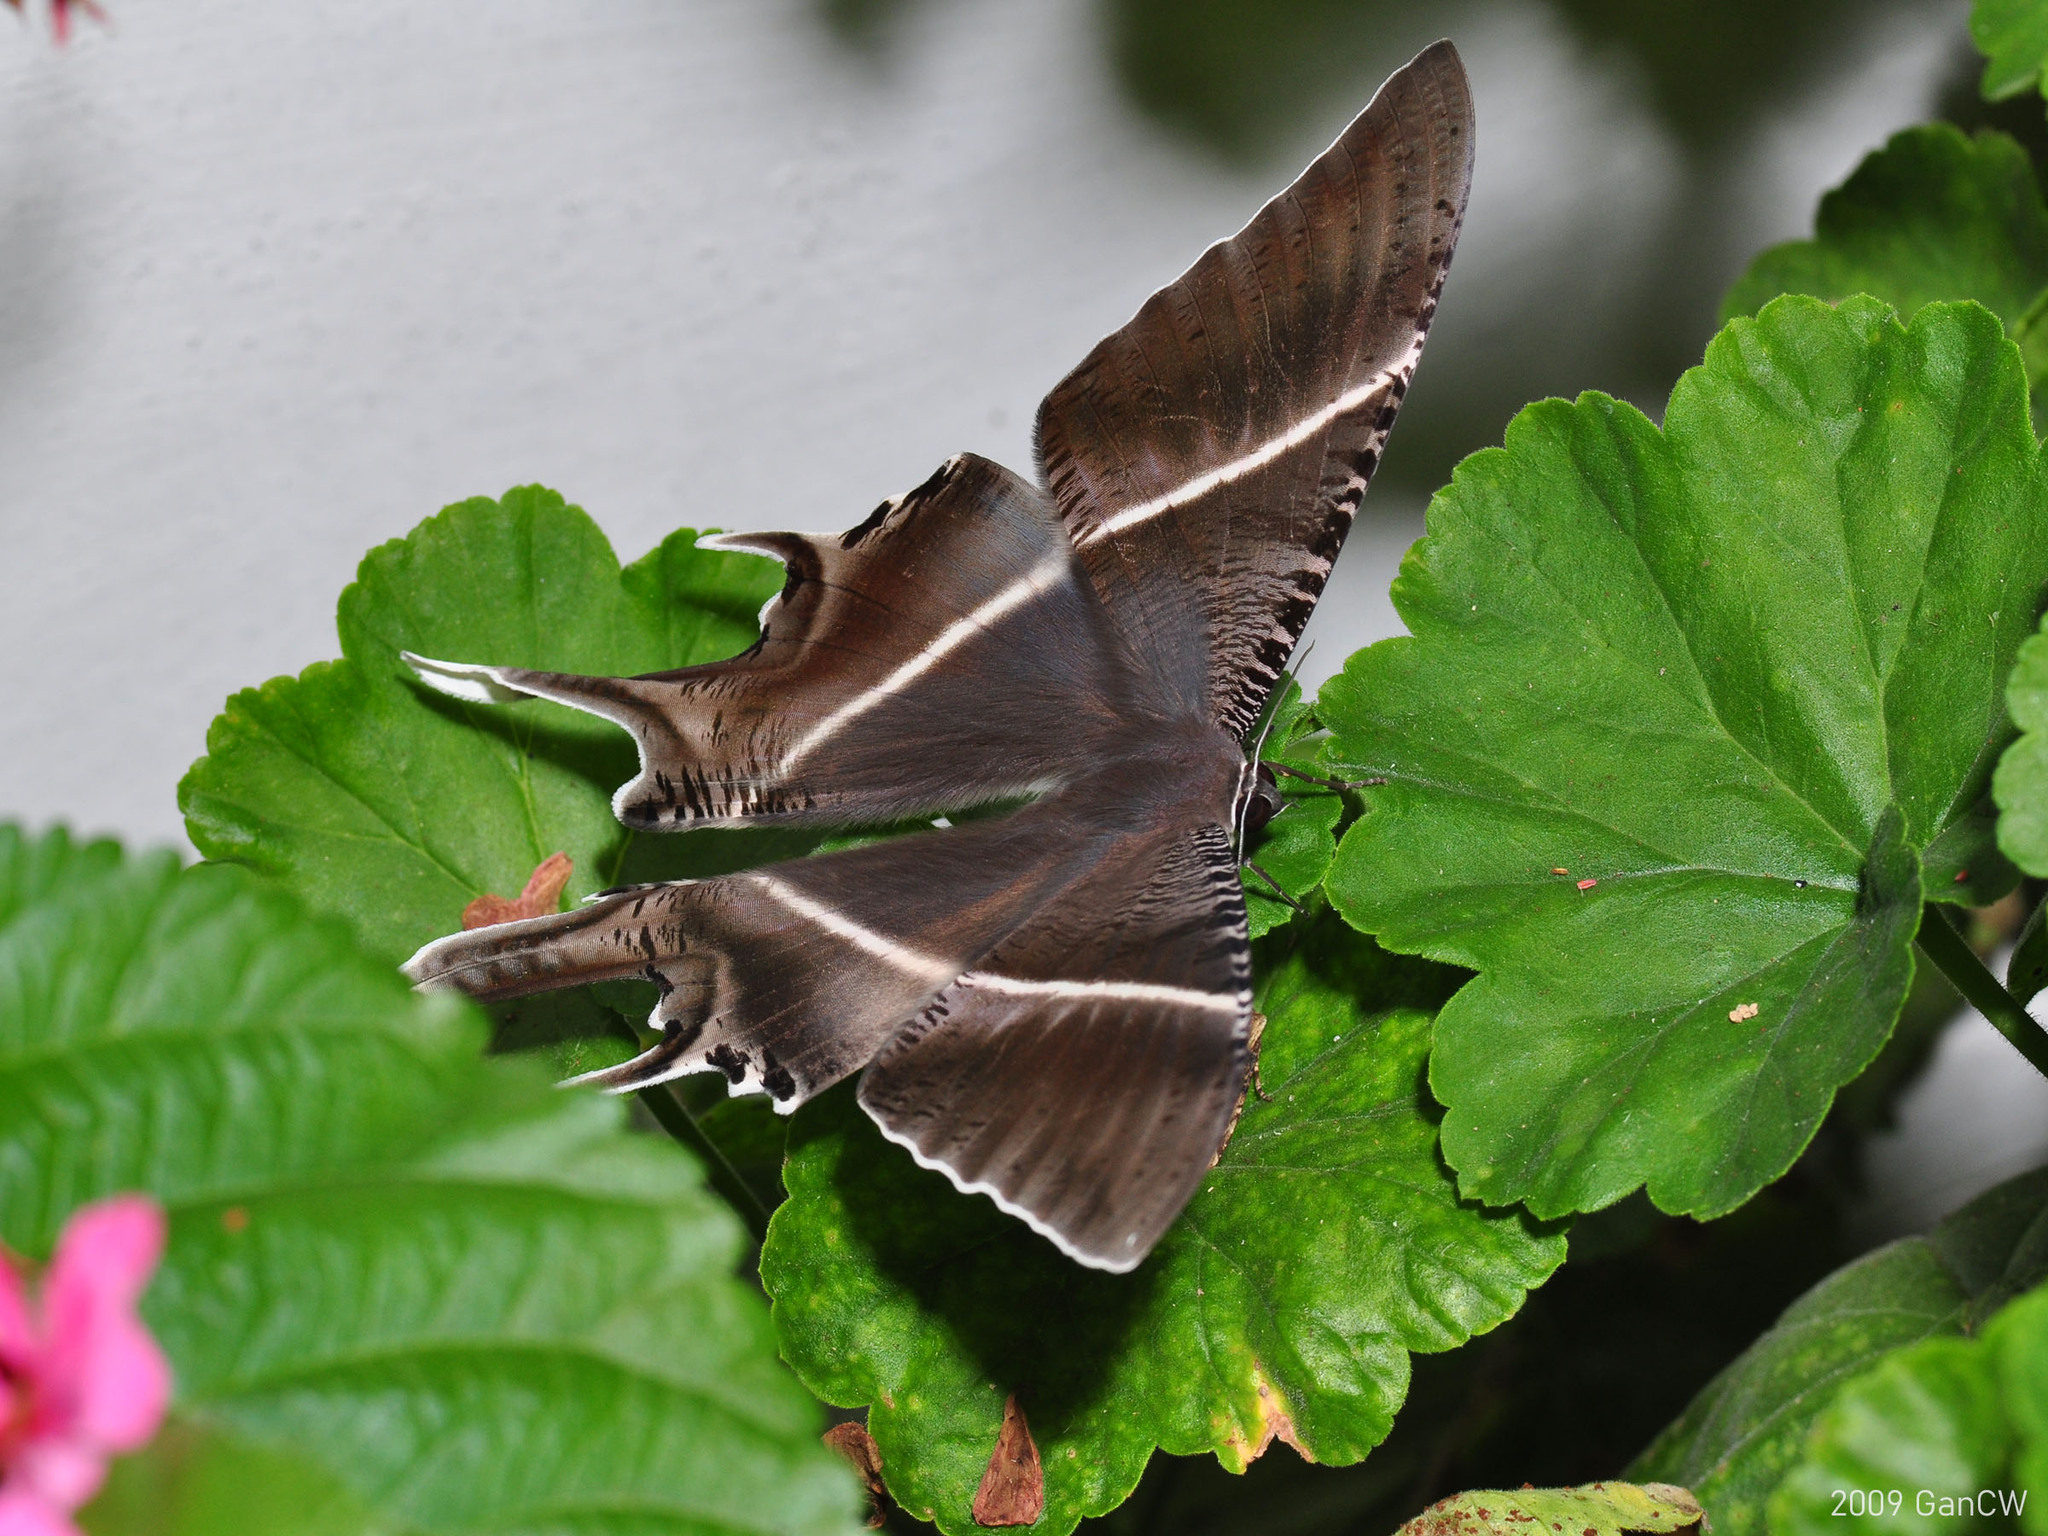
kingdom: Animalia
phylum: Arthropoda
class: Insecta
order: Lepidoptera
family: Uraniidae
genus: Lyssa
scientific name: Lyssa zampa
